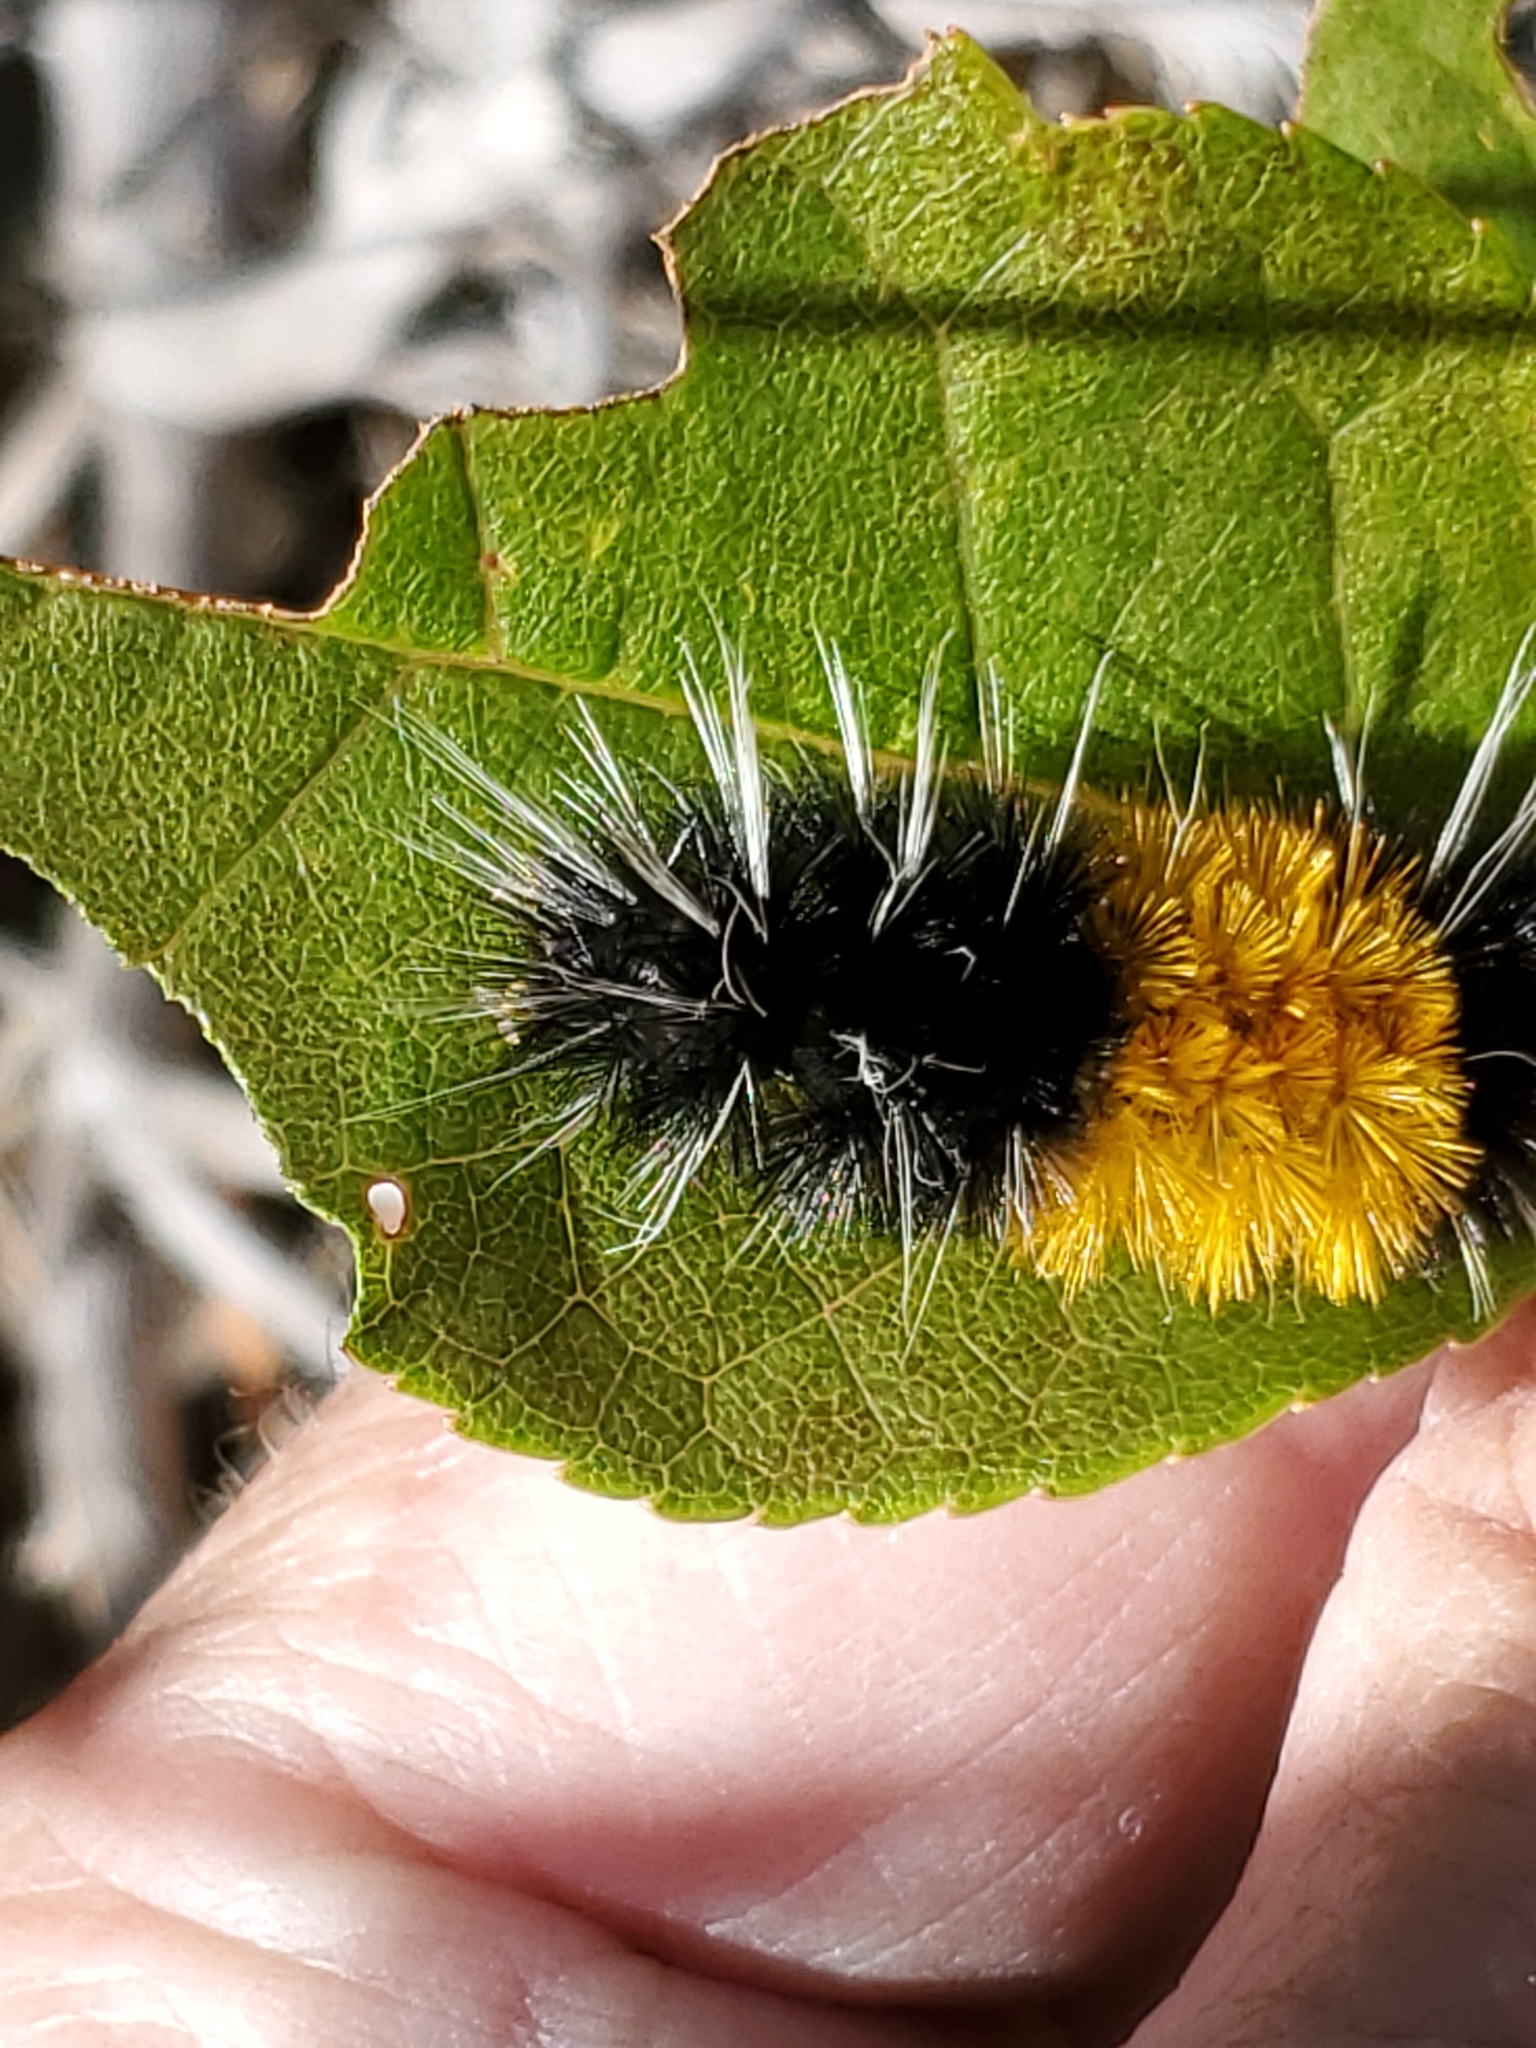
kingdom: Animalia
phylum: Arthropoda
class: Insecta
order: Lepidoptera
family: Erebidae
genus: Lophocampa
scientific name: Lophocampa maculata
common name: Spotted tussock moth
